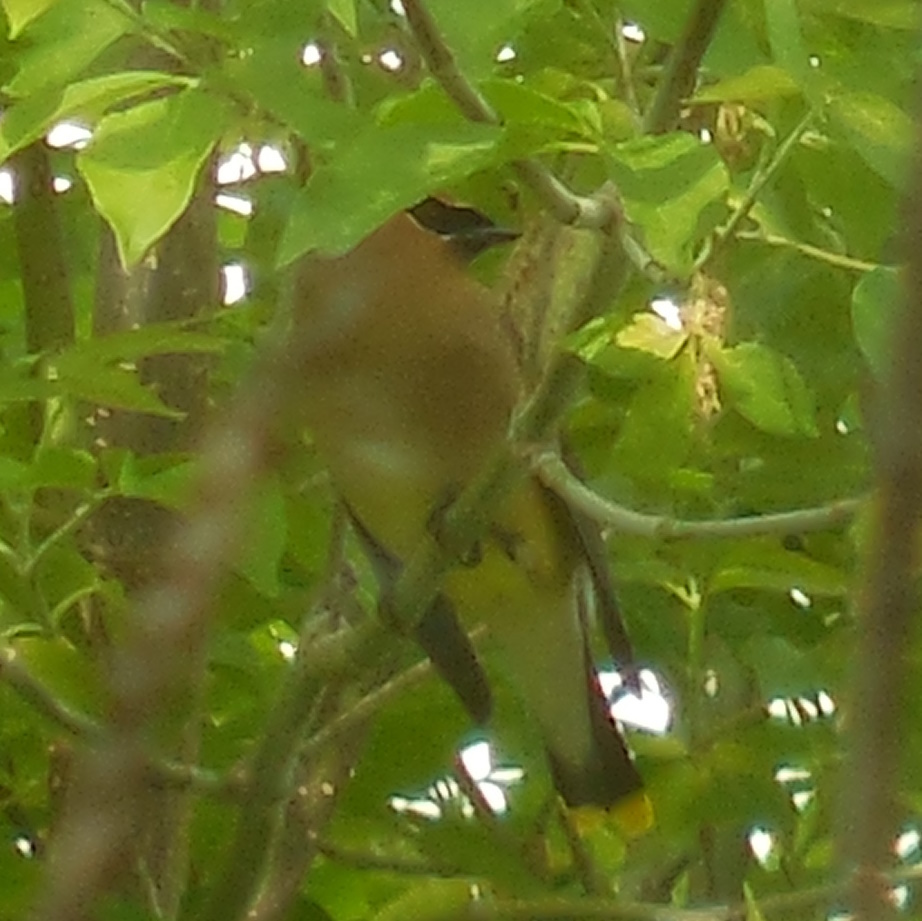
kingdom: Animalia
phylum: Chordata
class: Aves
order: Passeriformes
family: Bombycillidae
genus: Bombycilla
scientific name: Bombycilla cedrorum
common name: Cedar waxwing
